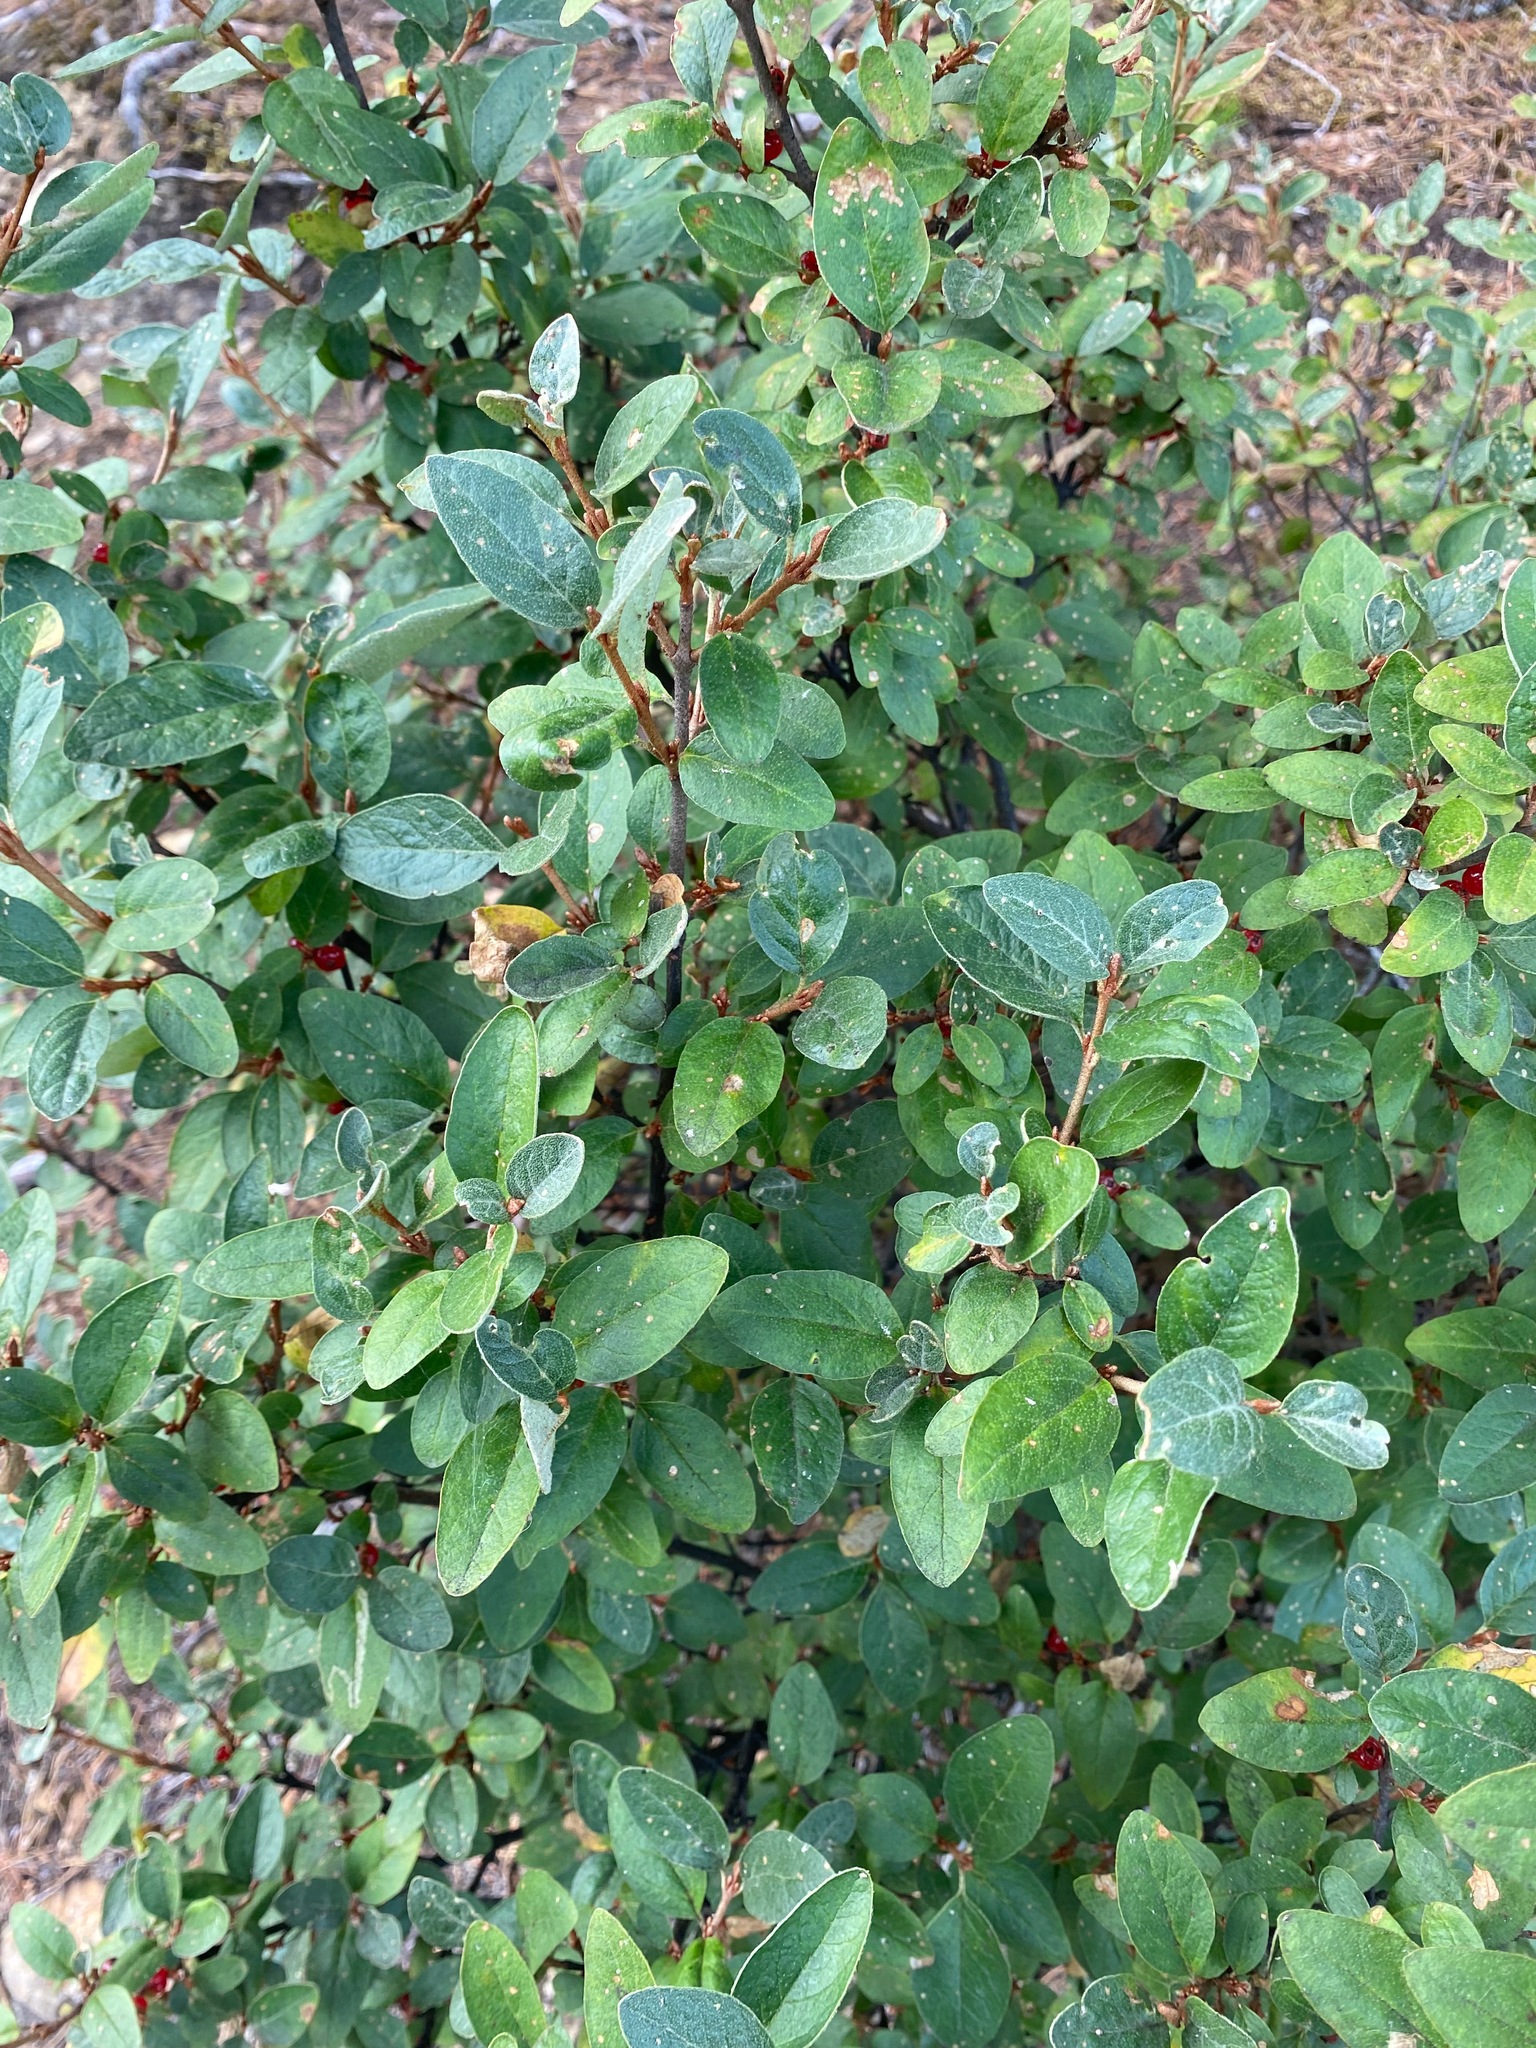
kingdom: Plantae
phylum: Tracheophyta
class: Magnoliopsida
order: Rosales
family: Elaeagnaceae
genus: Shepherdia
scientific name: Shepherdia canadensis
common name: Soapberry
